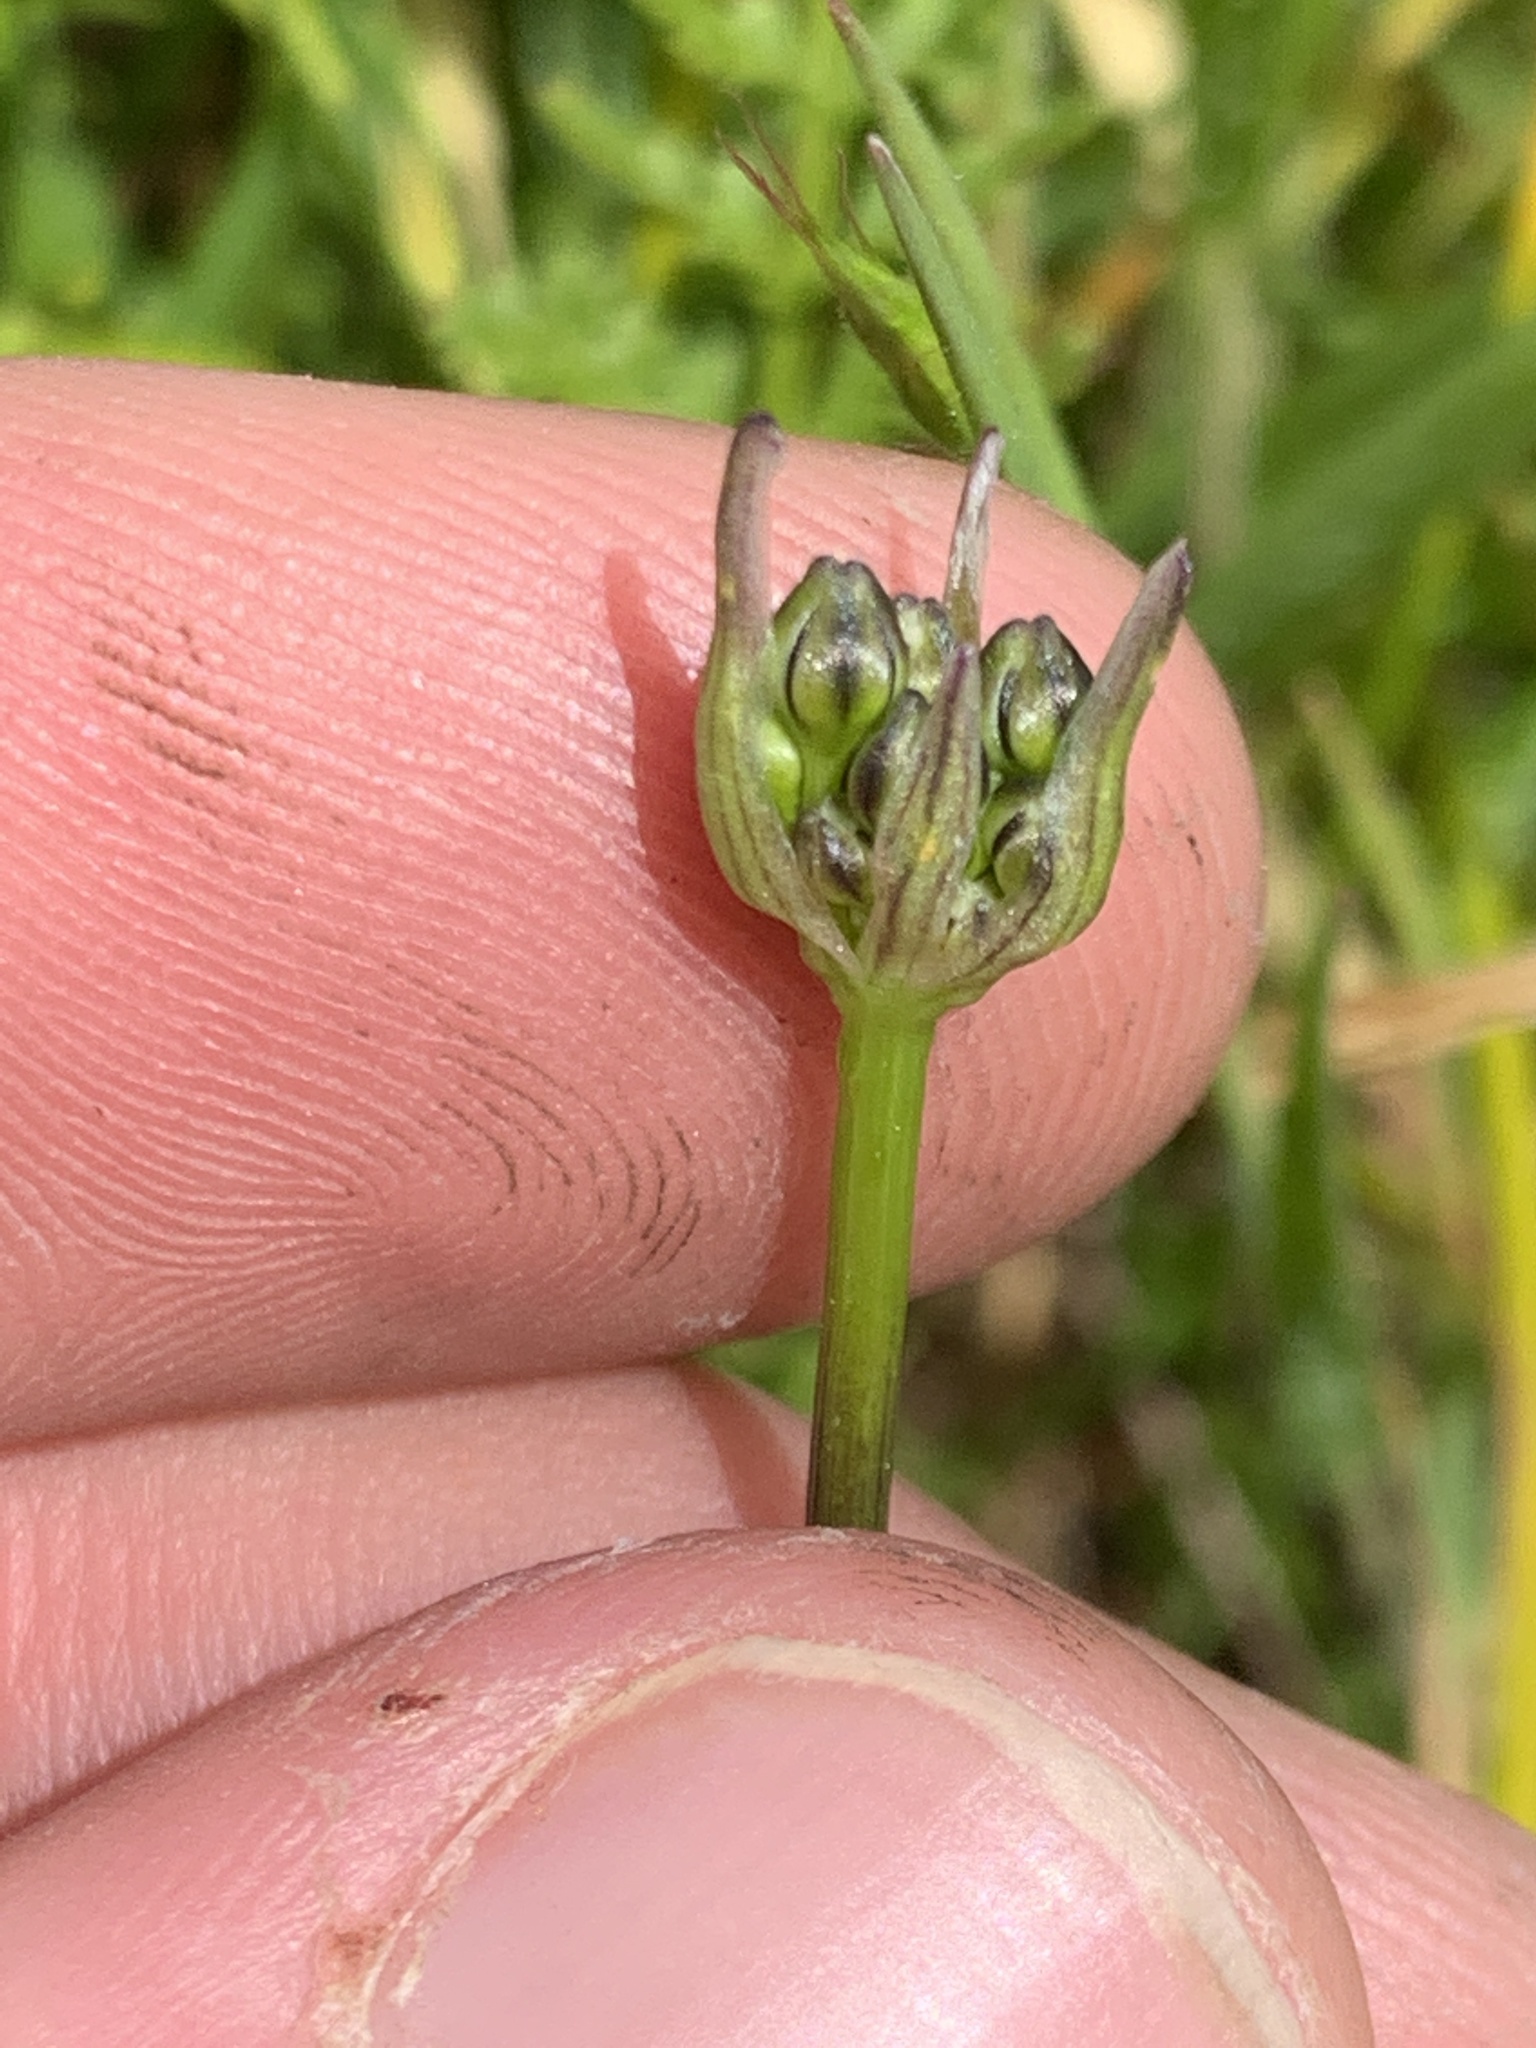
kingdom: Plantae
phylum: Tracheophyta
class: Liliopsida
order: Asparagales
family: Asparagaceae
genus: Triteleia
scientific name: Triteleia hyacinthina
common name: White brodiaea
